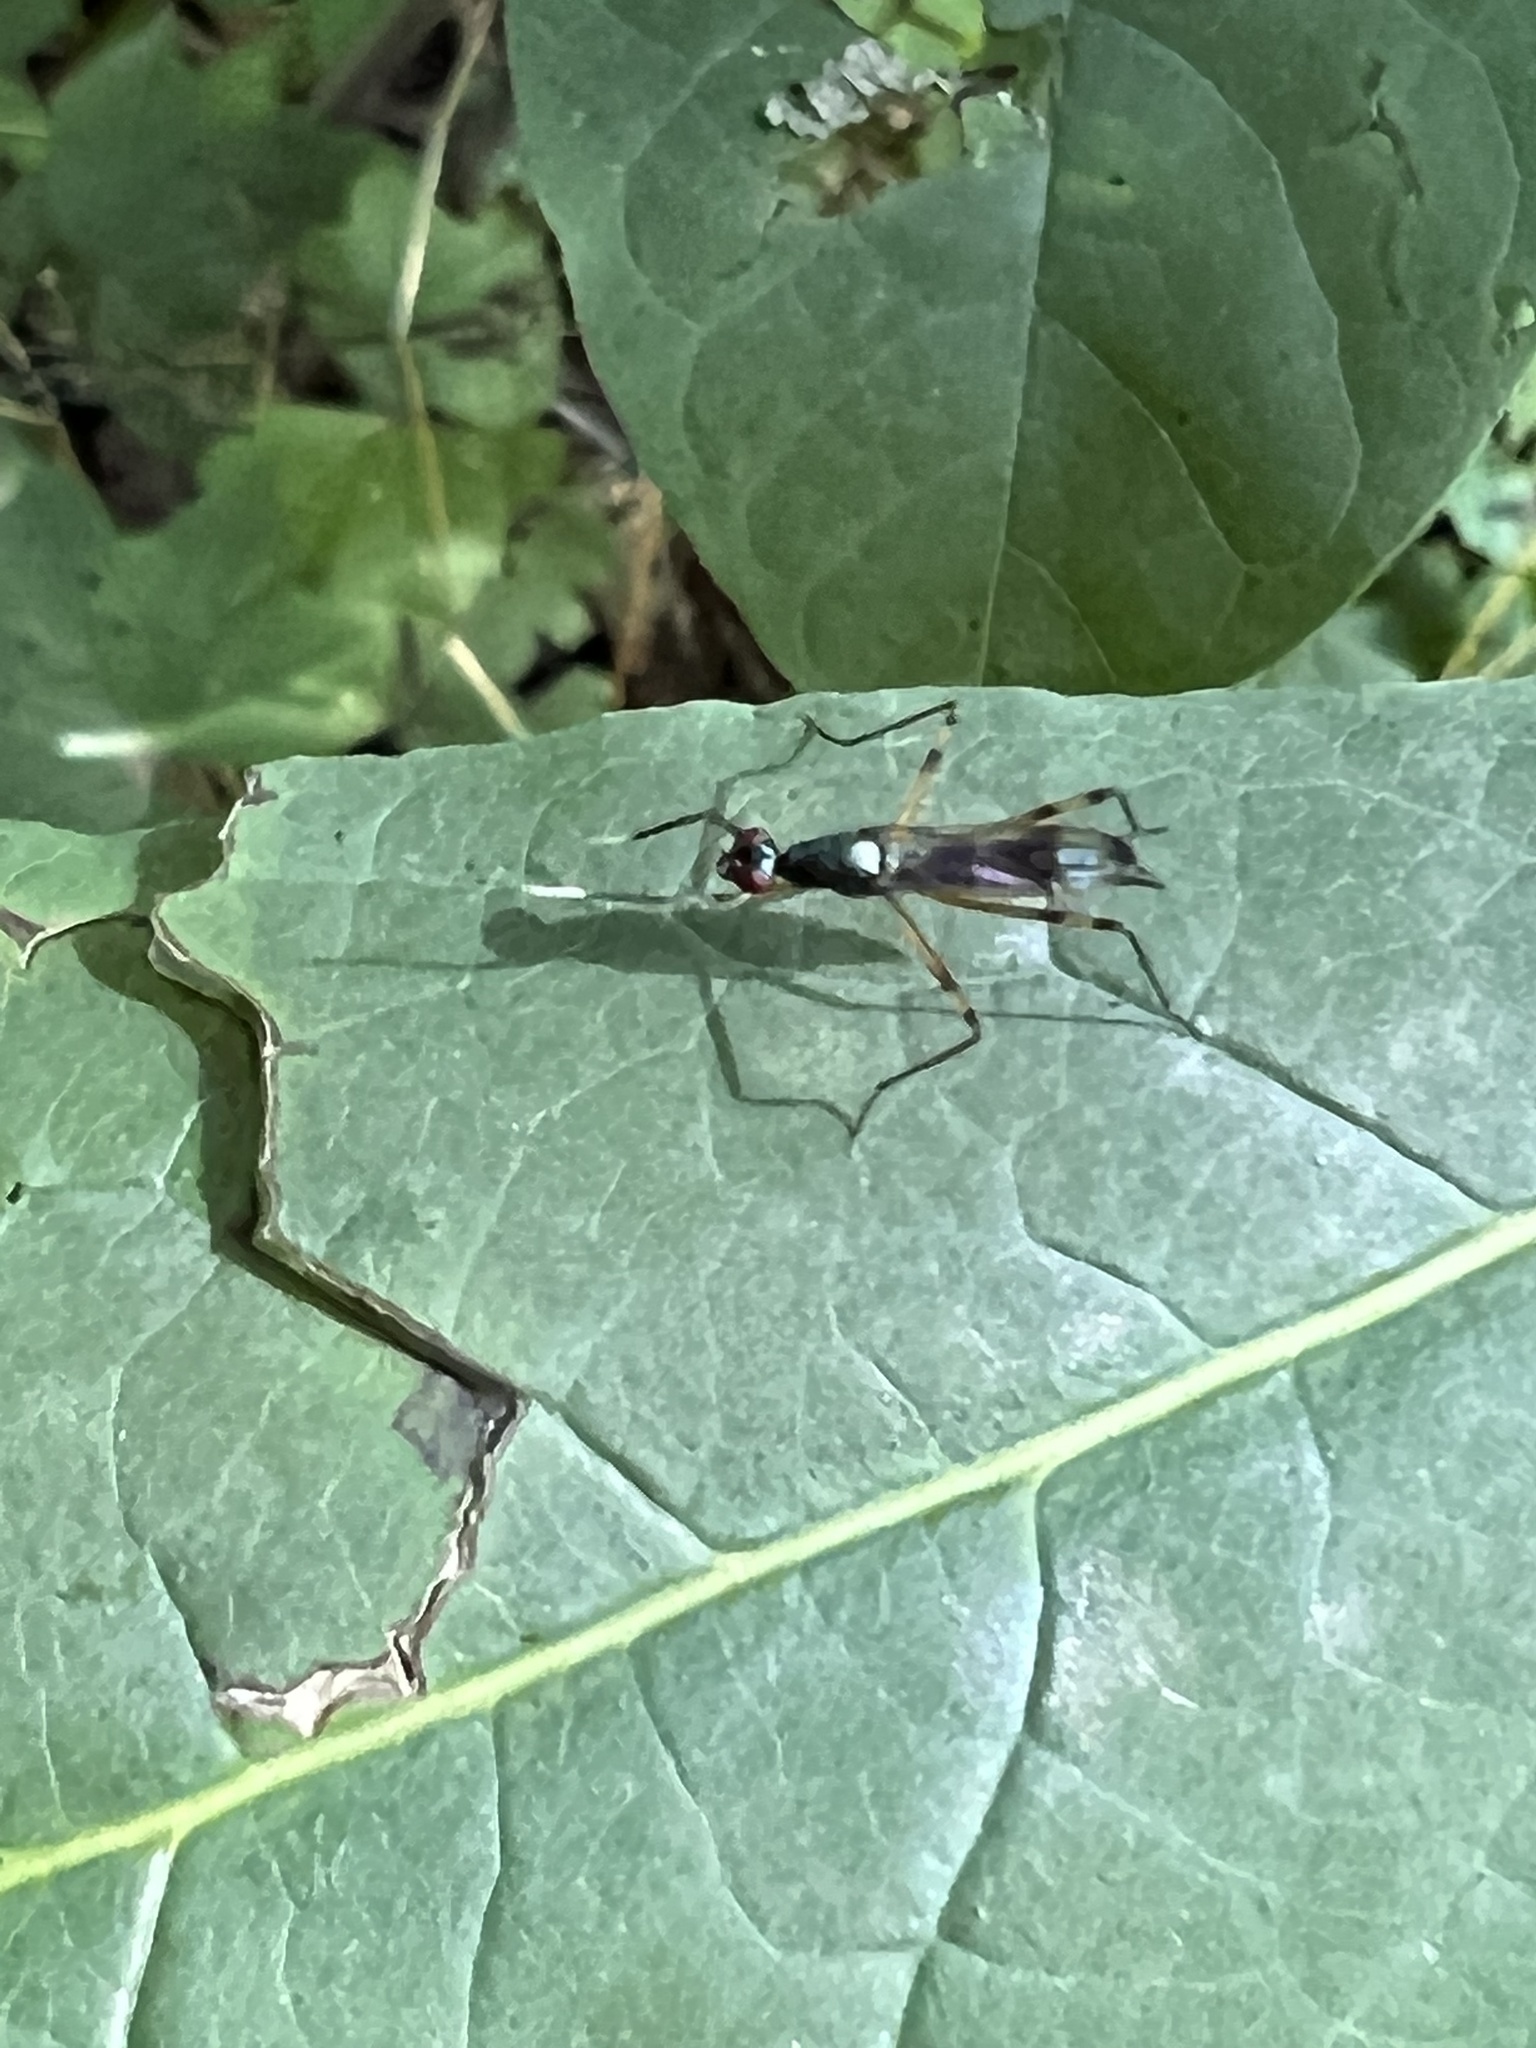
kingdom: Animalia
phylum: Arthropoda
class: Insecta
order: Diptera
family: Micropezidae
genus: Rainieria
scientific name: Rainieria antennaepes
